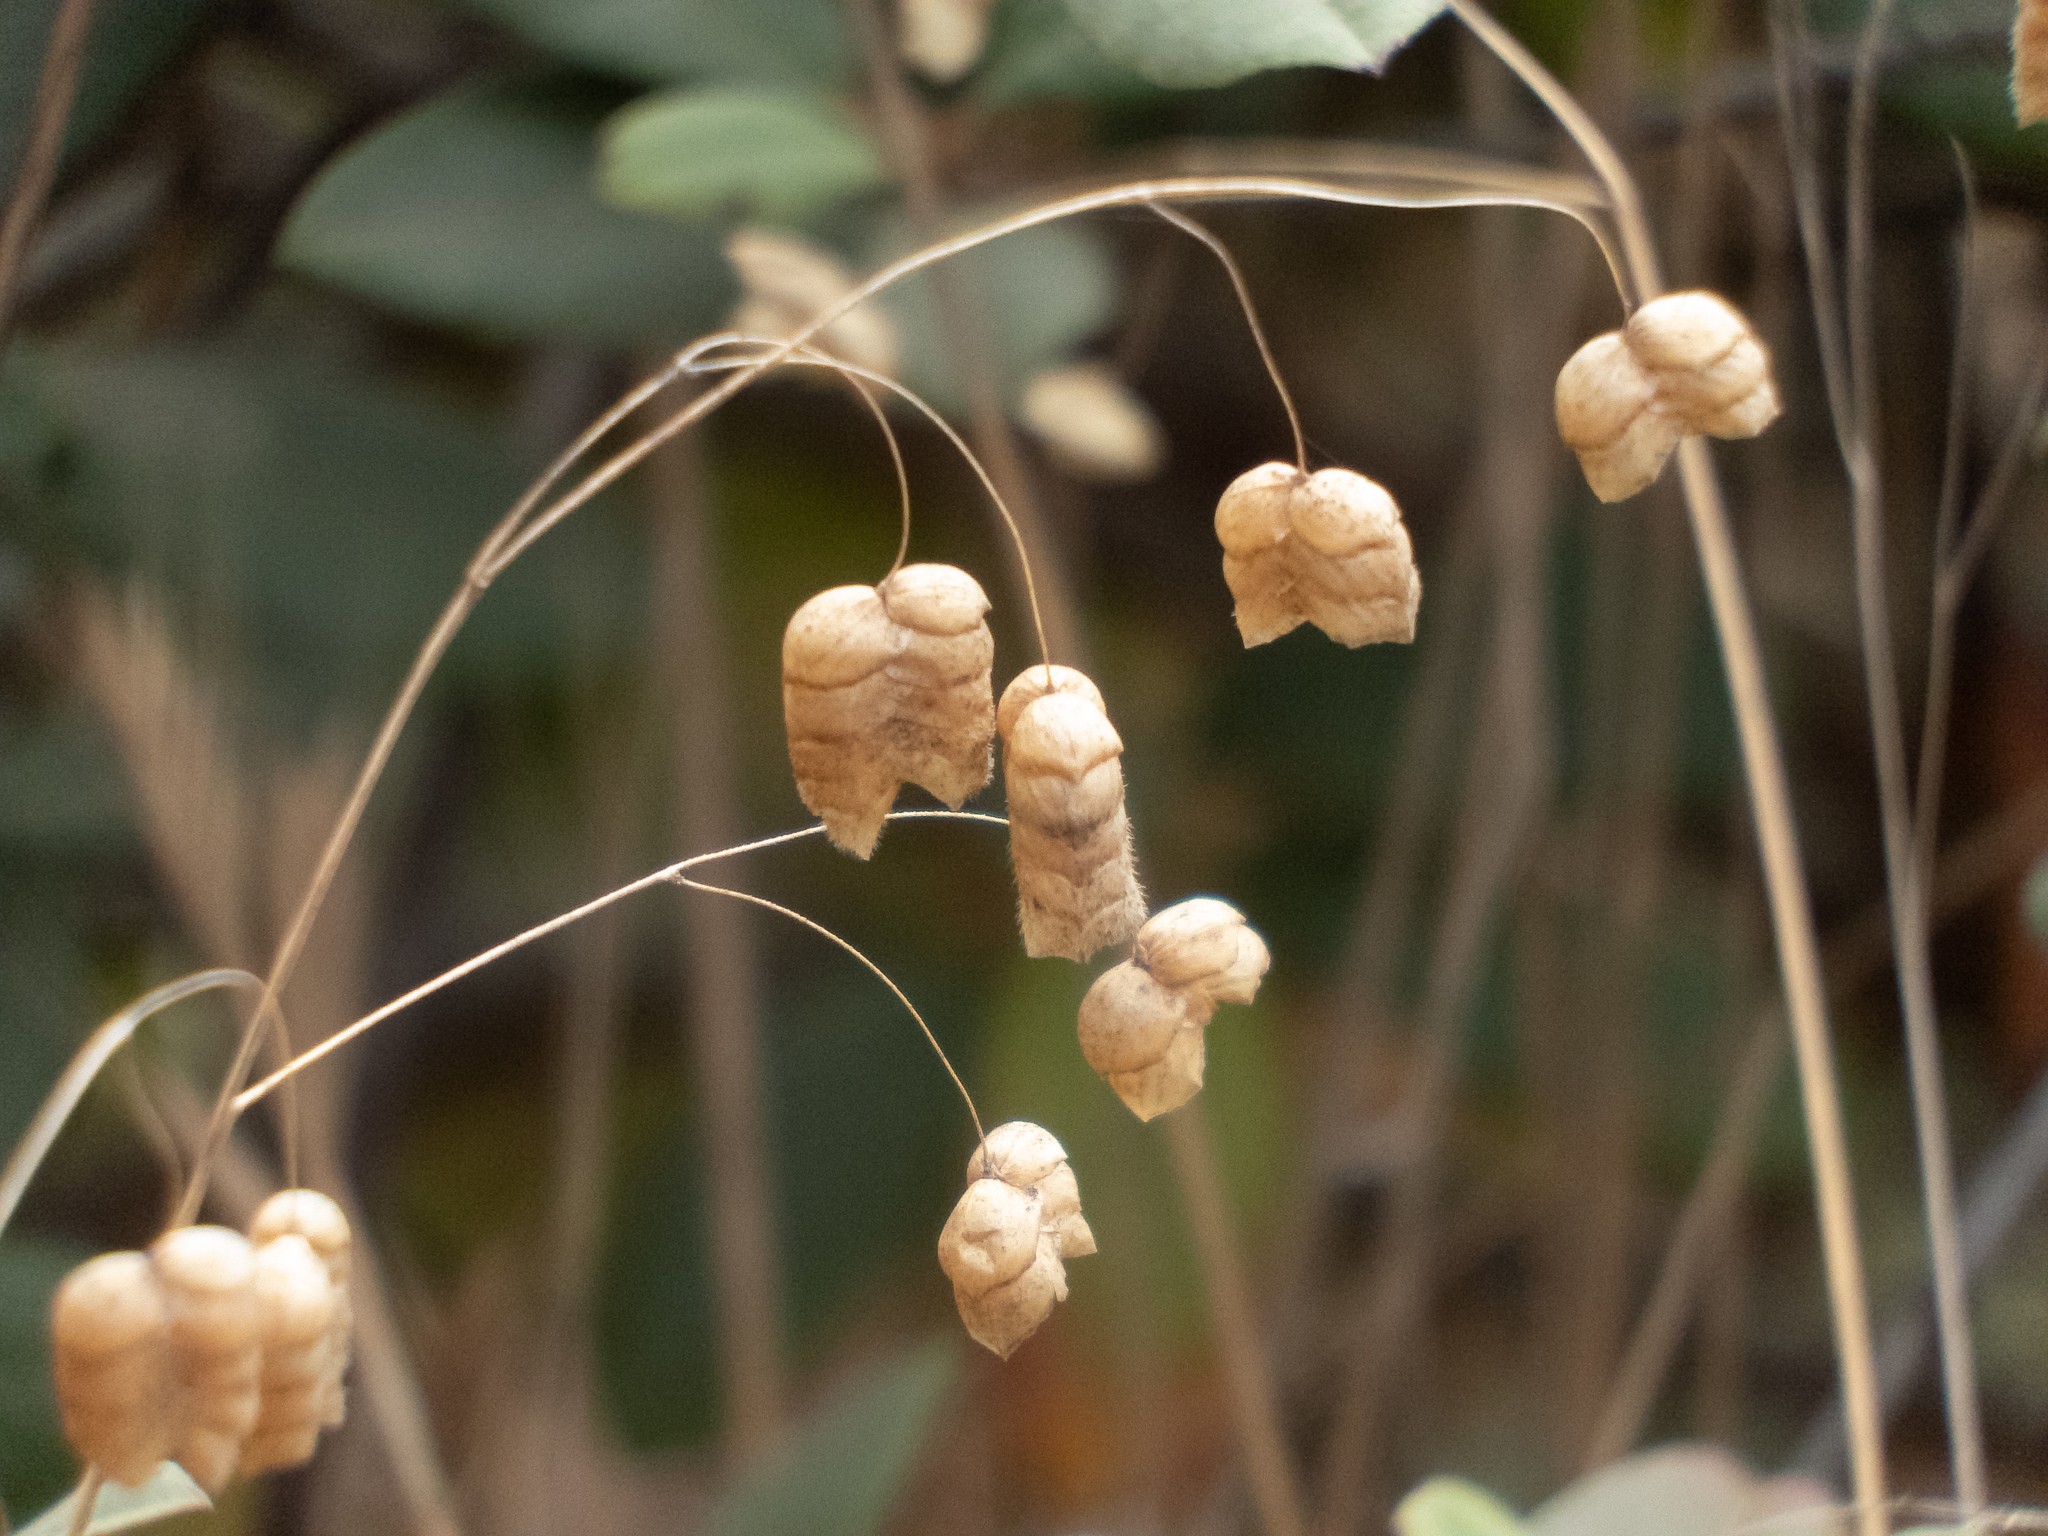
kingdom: Plantae
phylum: Tracheophyta
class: Liliopsida
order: Poales
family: Poaceae
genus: Briza
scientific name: Briza maxima
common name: Big quakinggrass
